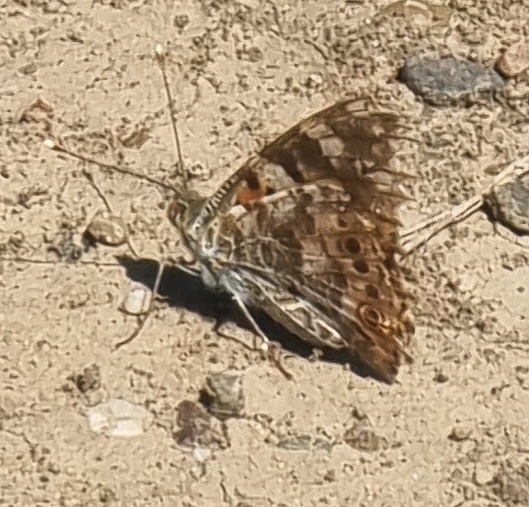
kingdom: Animalia
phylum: Arthropoda
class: Insecta
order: Lepidoptera
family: Nymphalidae
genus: Vanessa
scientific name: Vanessa cardui
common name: Painted lady
